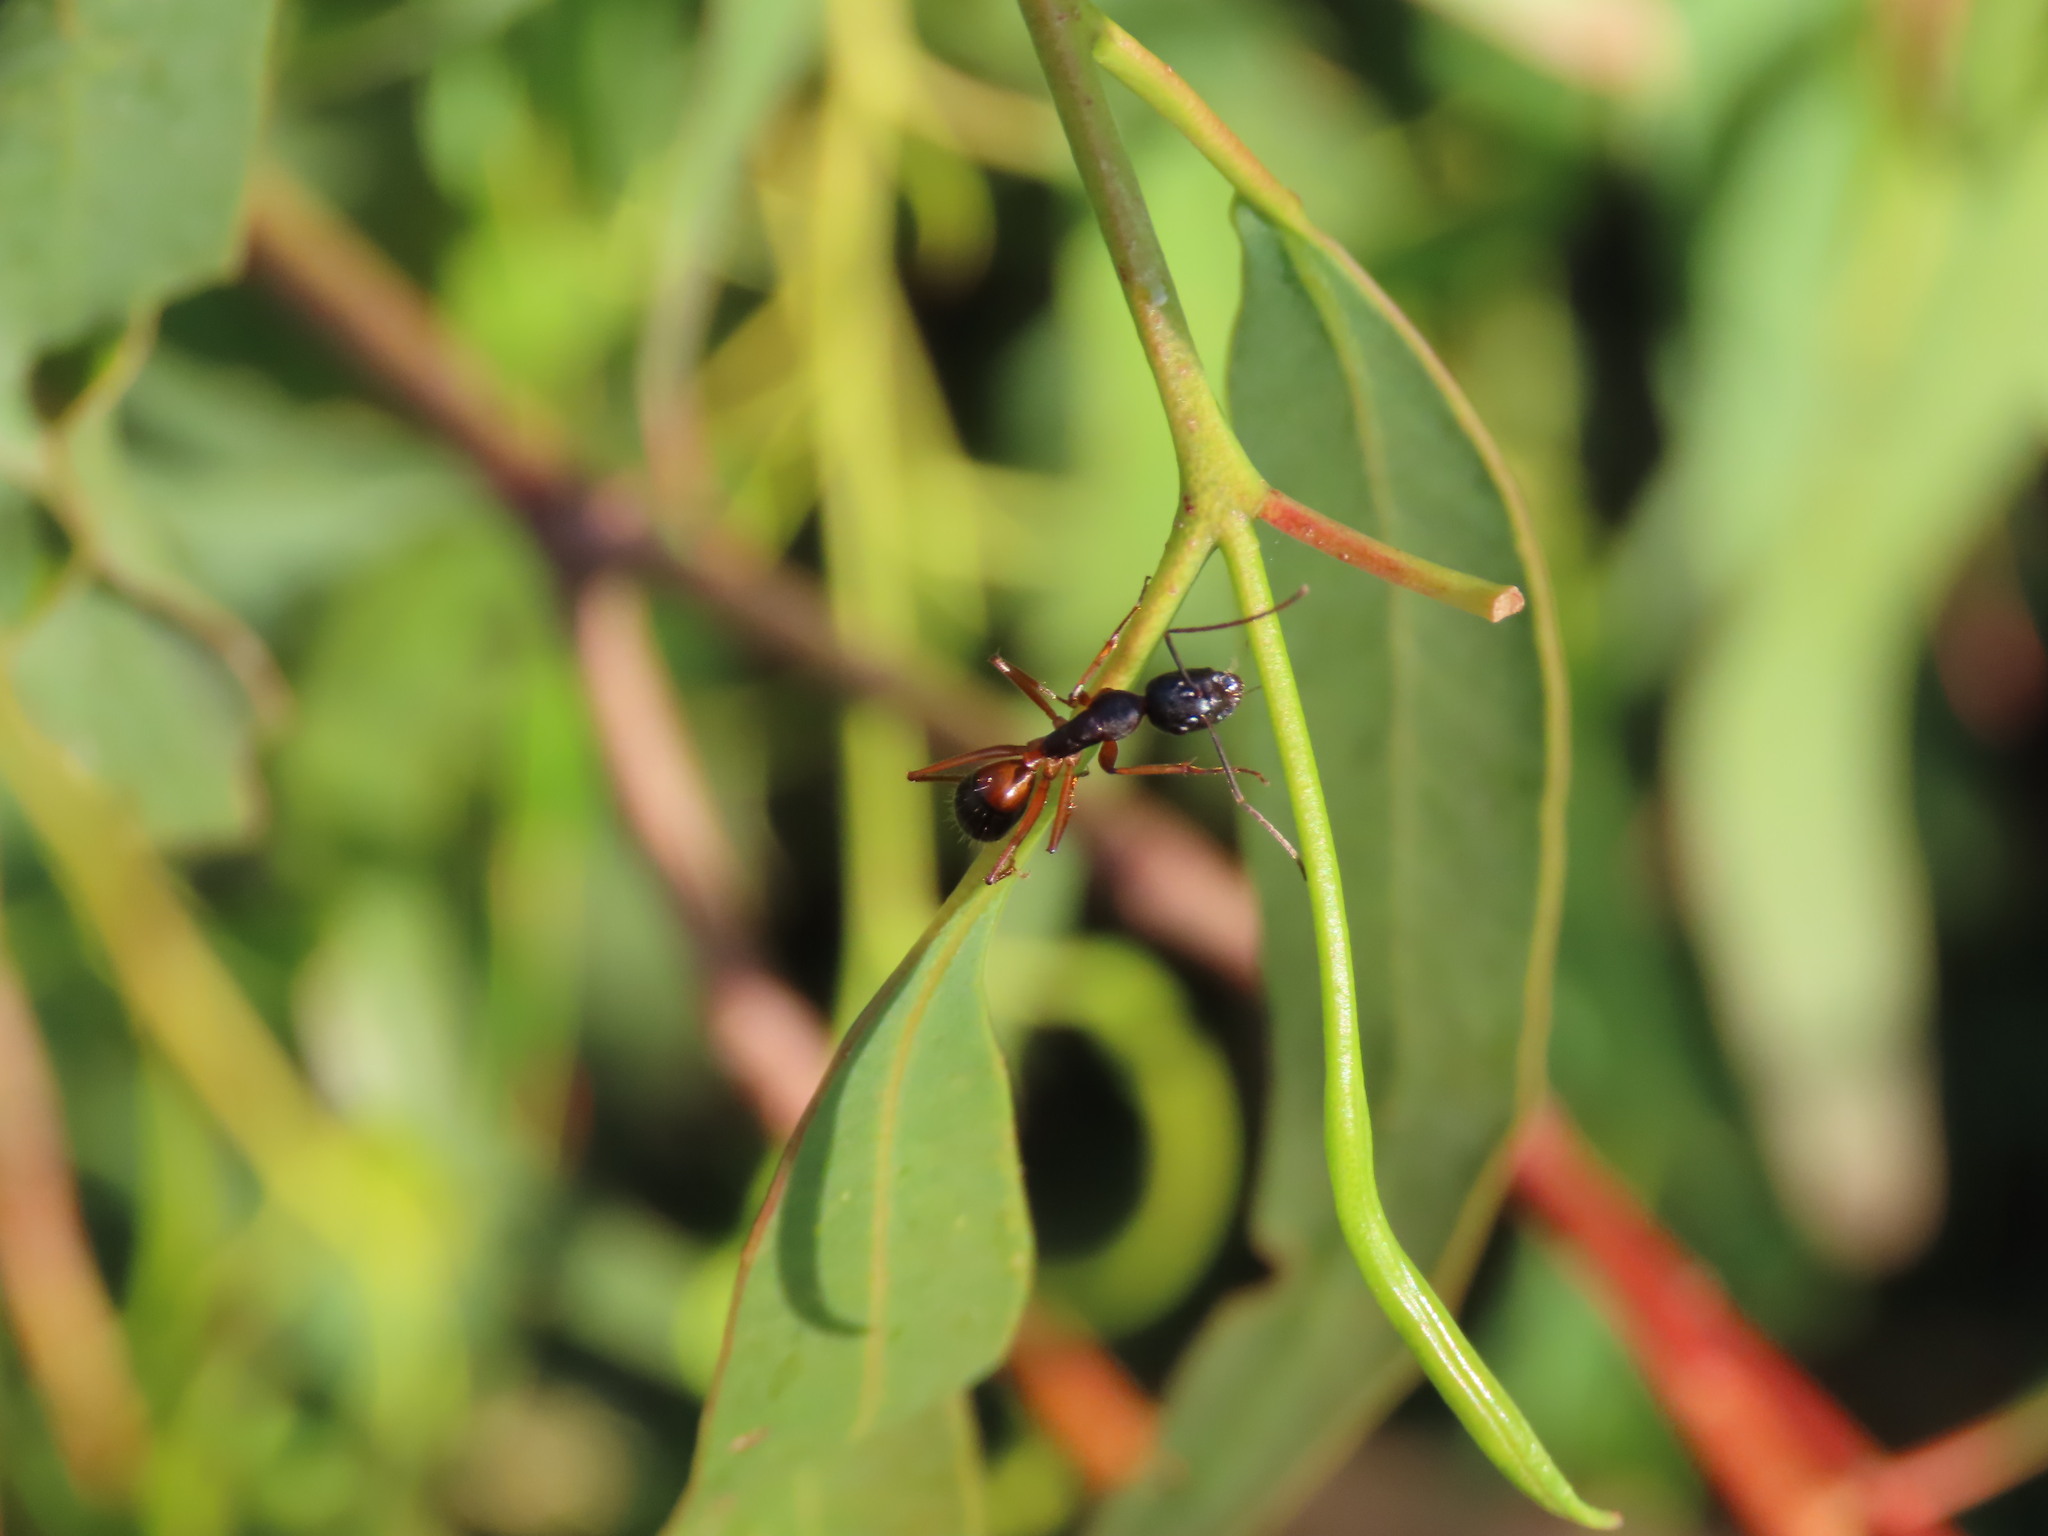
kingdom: Animalia
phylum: Arthropoda
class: Insecta
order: Hymenoptera
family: Formicidae
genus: Camponotus
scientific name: Camponotus consobrinus
